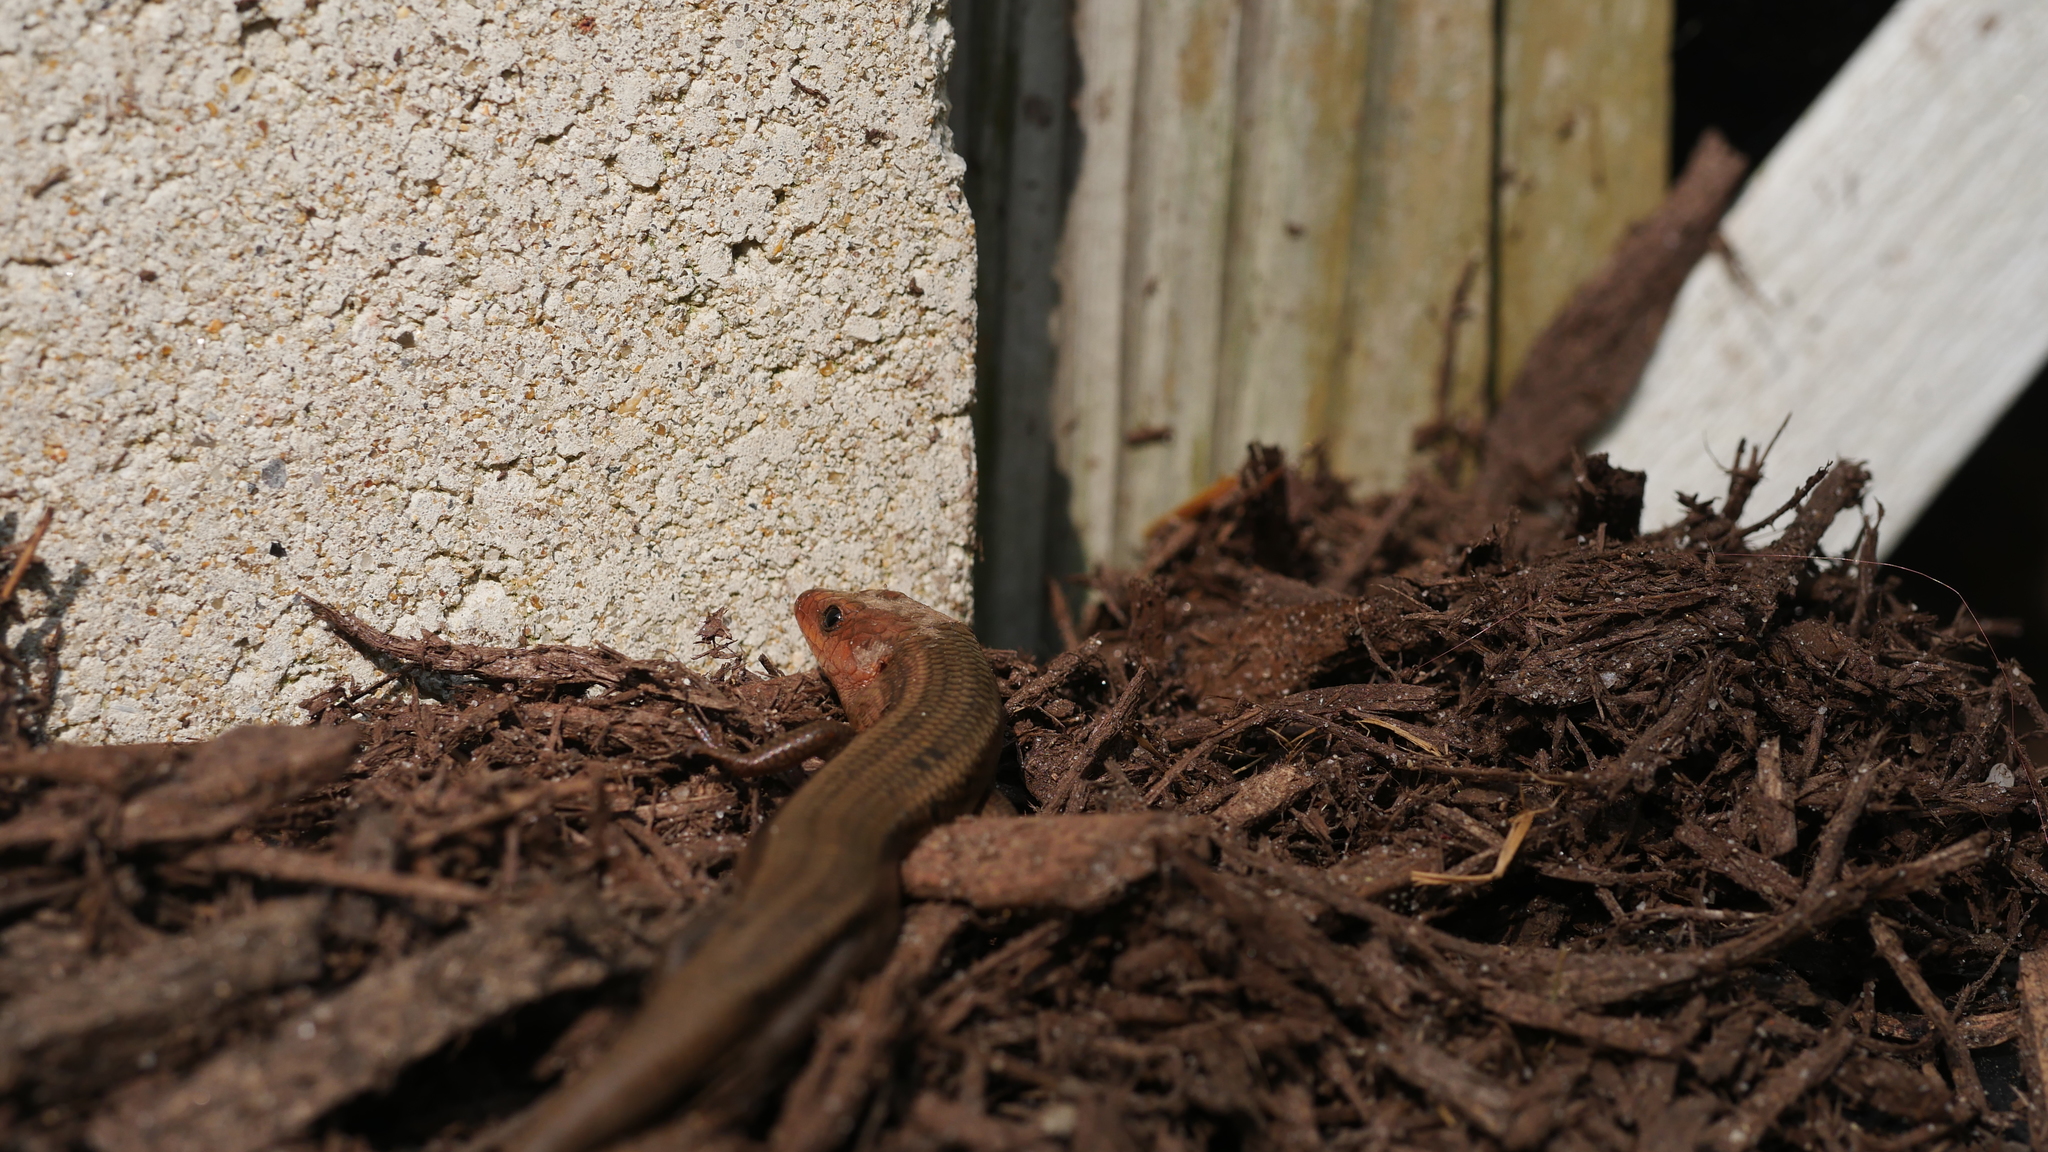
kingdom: Animalia
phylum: Chordata
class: Squamata
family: Scincidae
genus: Plestiodon
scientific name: Plestiodon fasciatus
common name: Five-lined skink
